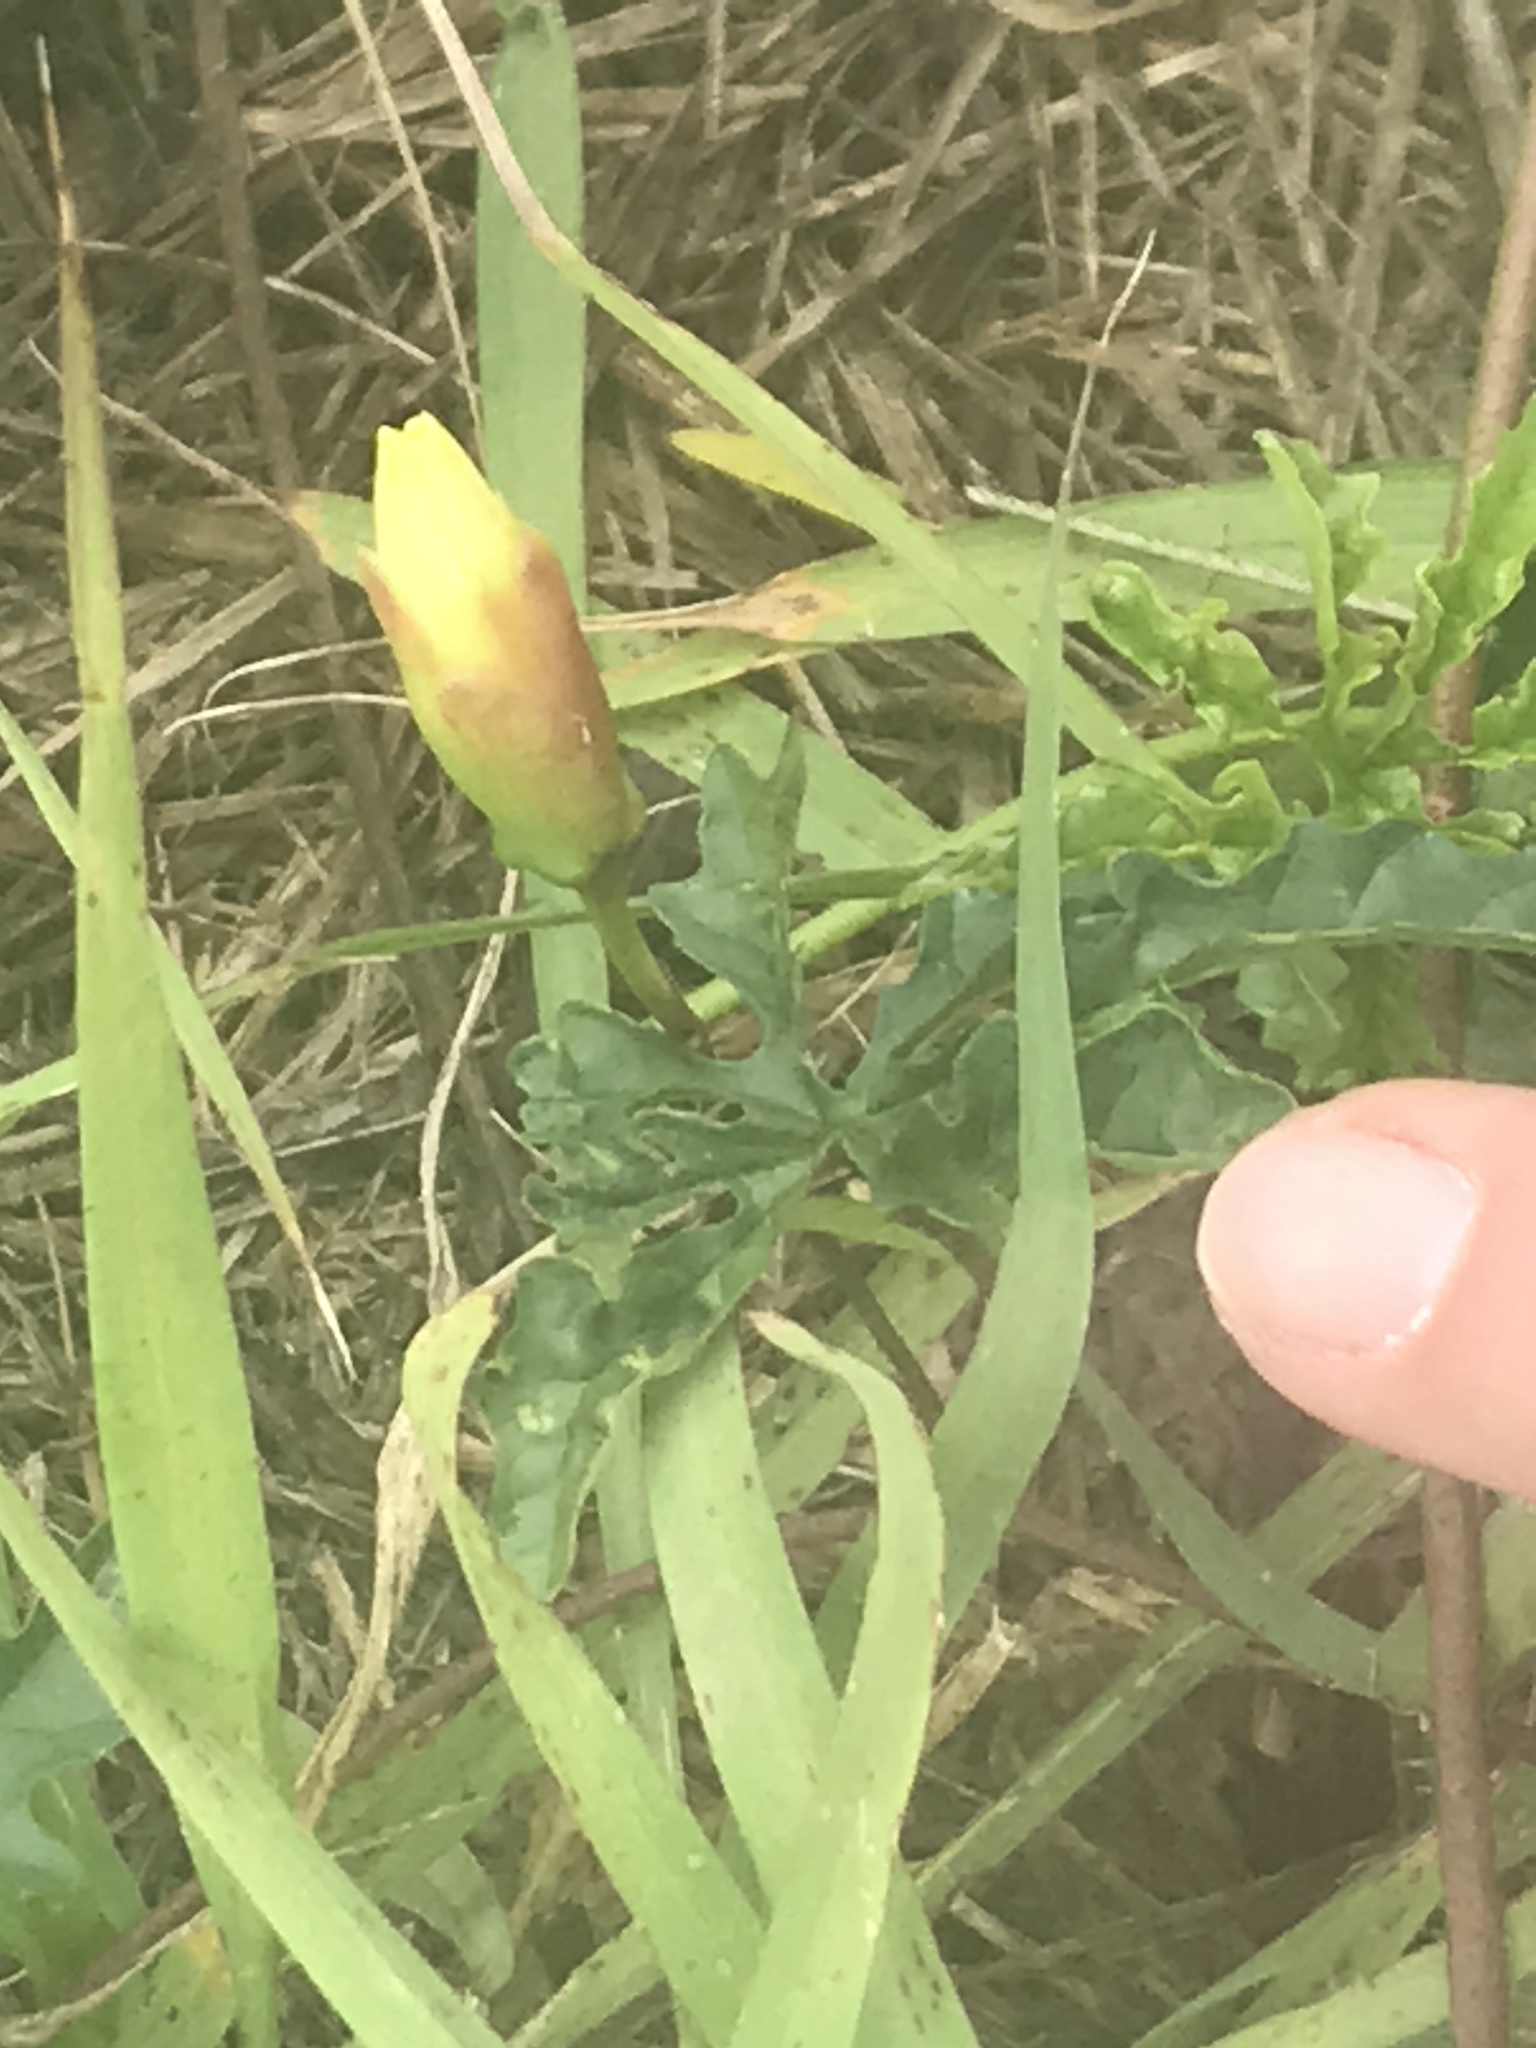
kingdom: Plantae
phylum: Tracheophyta
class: Magnoliopsida
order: Solanales
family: Convolvulaceae
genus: Distimake
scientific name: Distimake dissectus
